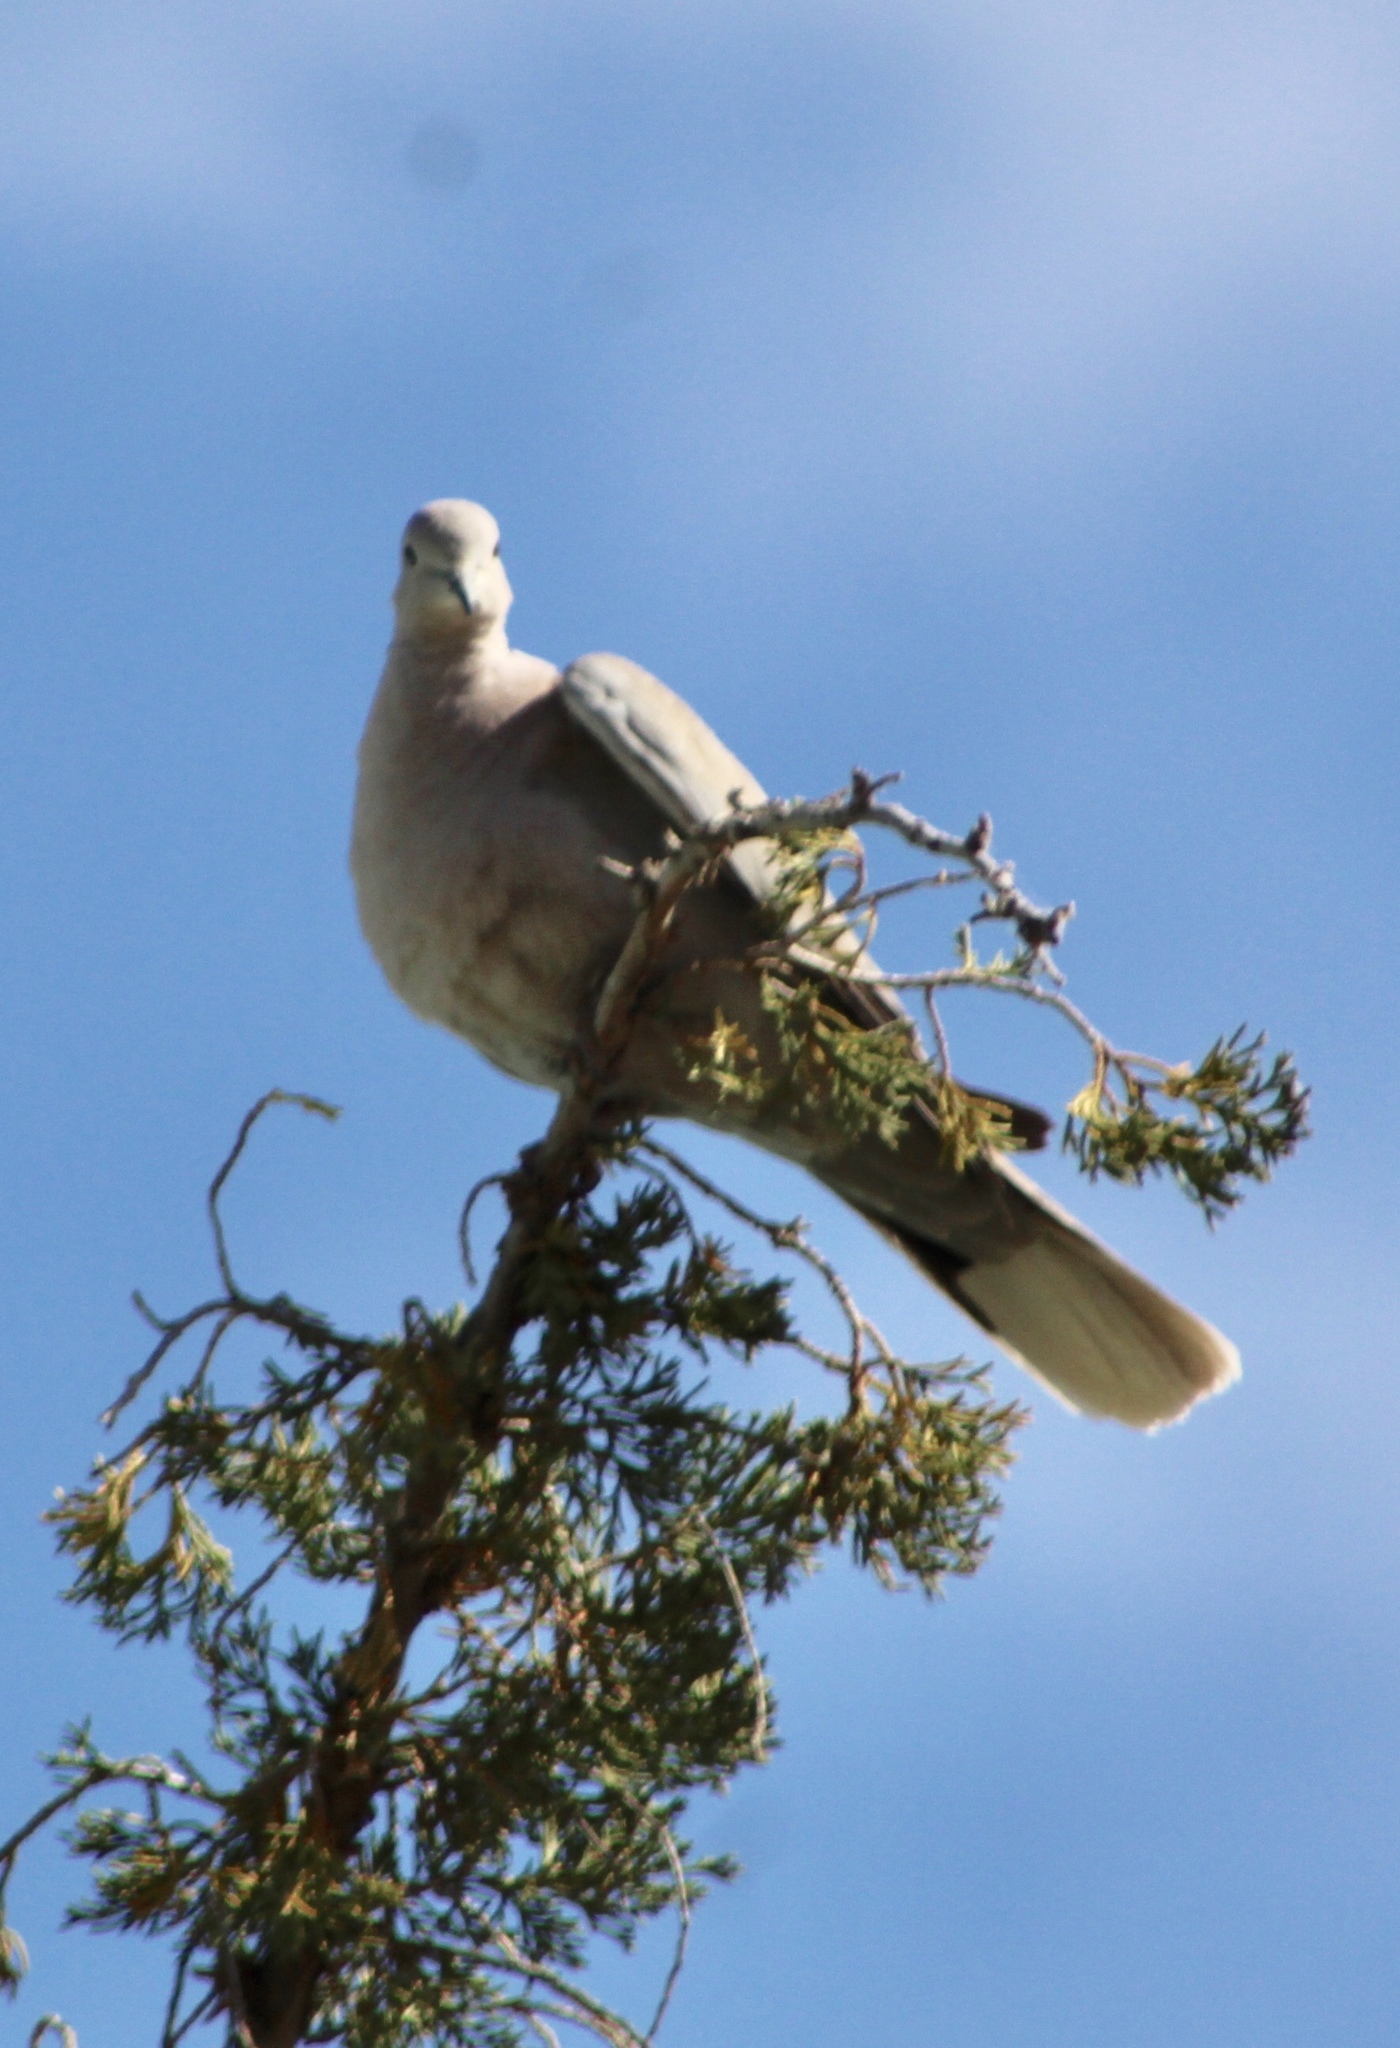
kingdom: Animalia
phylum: Chordata
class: Aves
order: Columbiformes
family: Columbidae
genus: Streptopelia
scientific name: Streptopelia decaocto
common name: Eurasian collared dove
